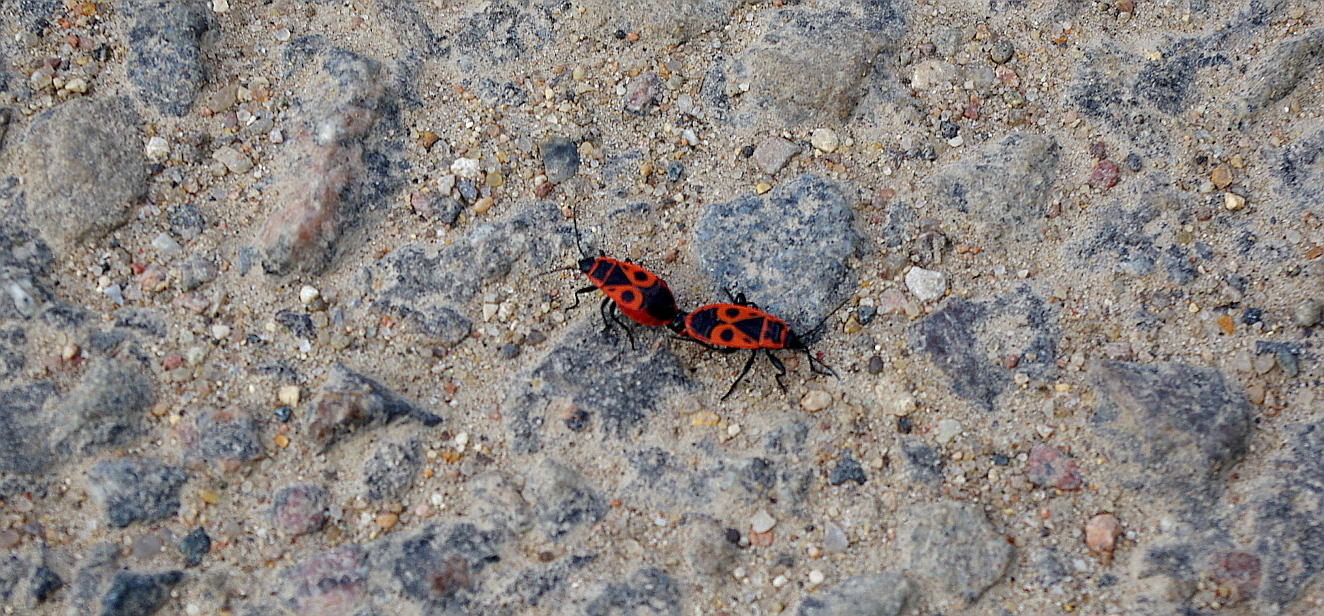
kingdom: Animalia
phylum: Arthropoda
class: Insecta
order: Hemiptera
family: Pyrrhocoridae
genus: Pyrrhocoris
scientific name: Pyrrhocoris apterus
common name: Firebug
